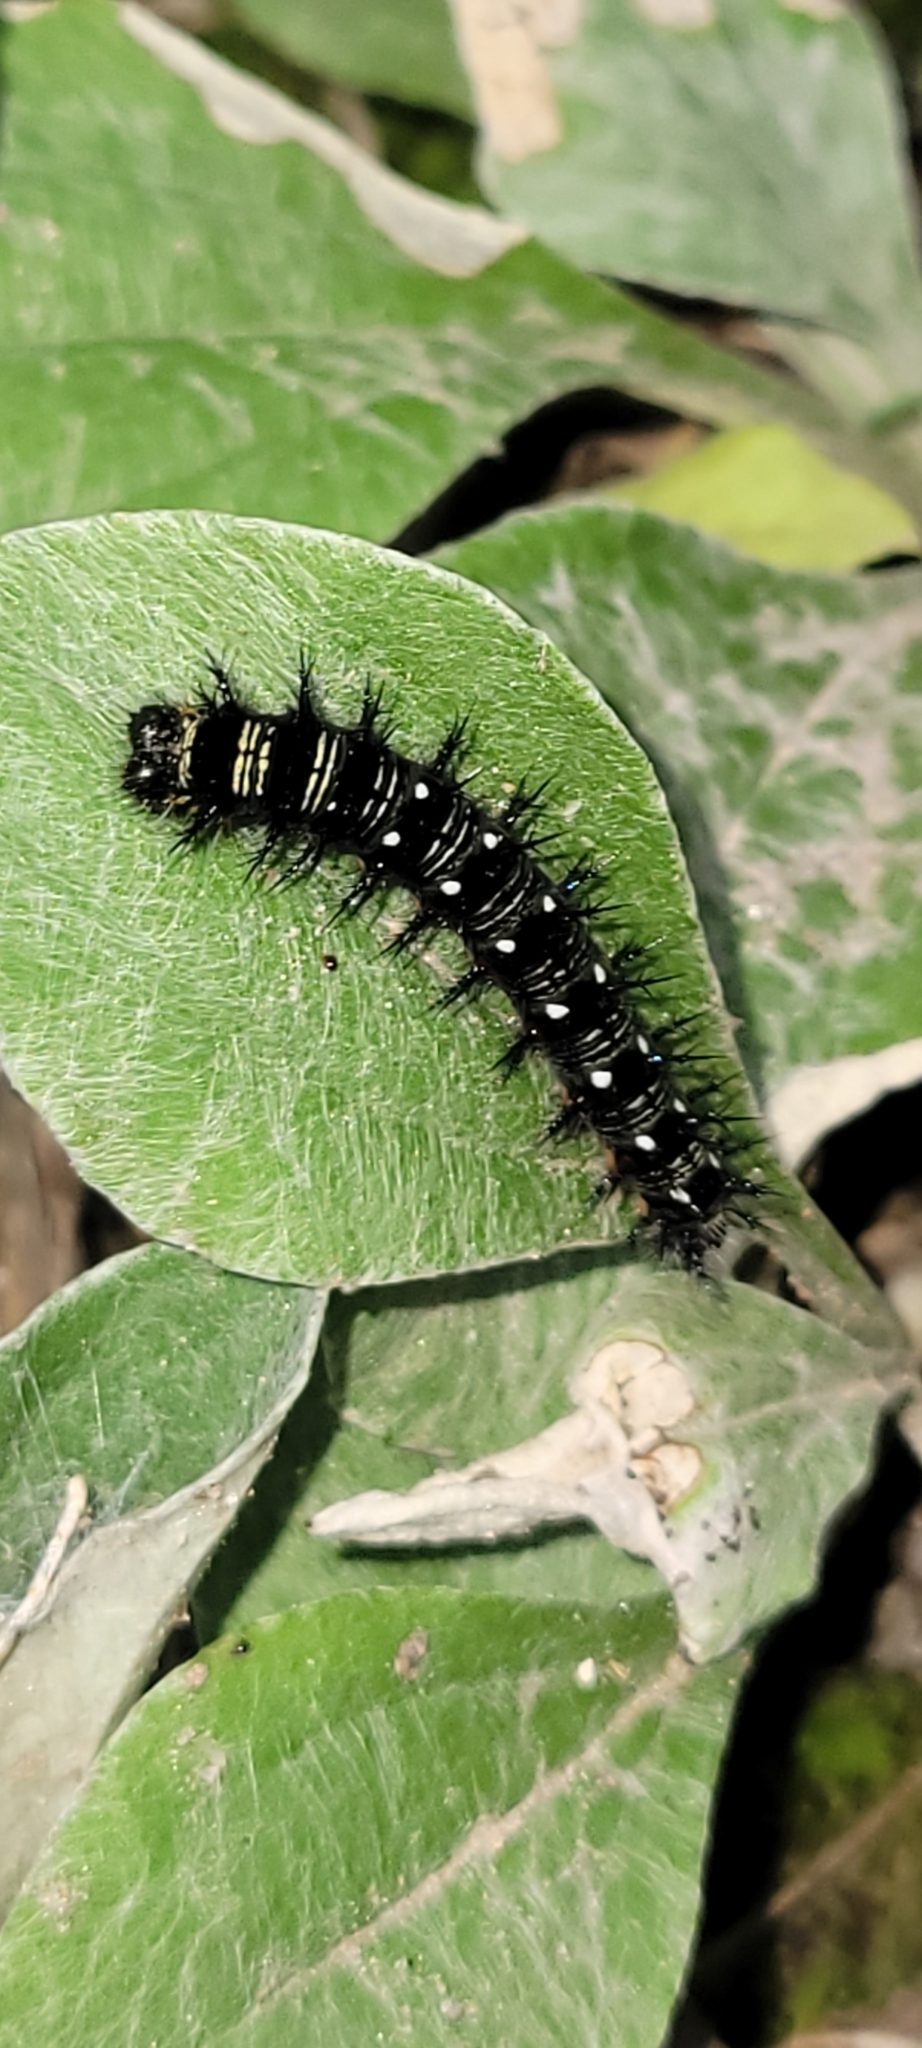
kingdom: Animalia
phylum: Arthropoda
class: Insecta
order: Lepidoptera
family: Nymphalidae
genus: Vanessa
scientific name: Vanessa virginiensis
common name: American lady
